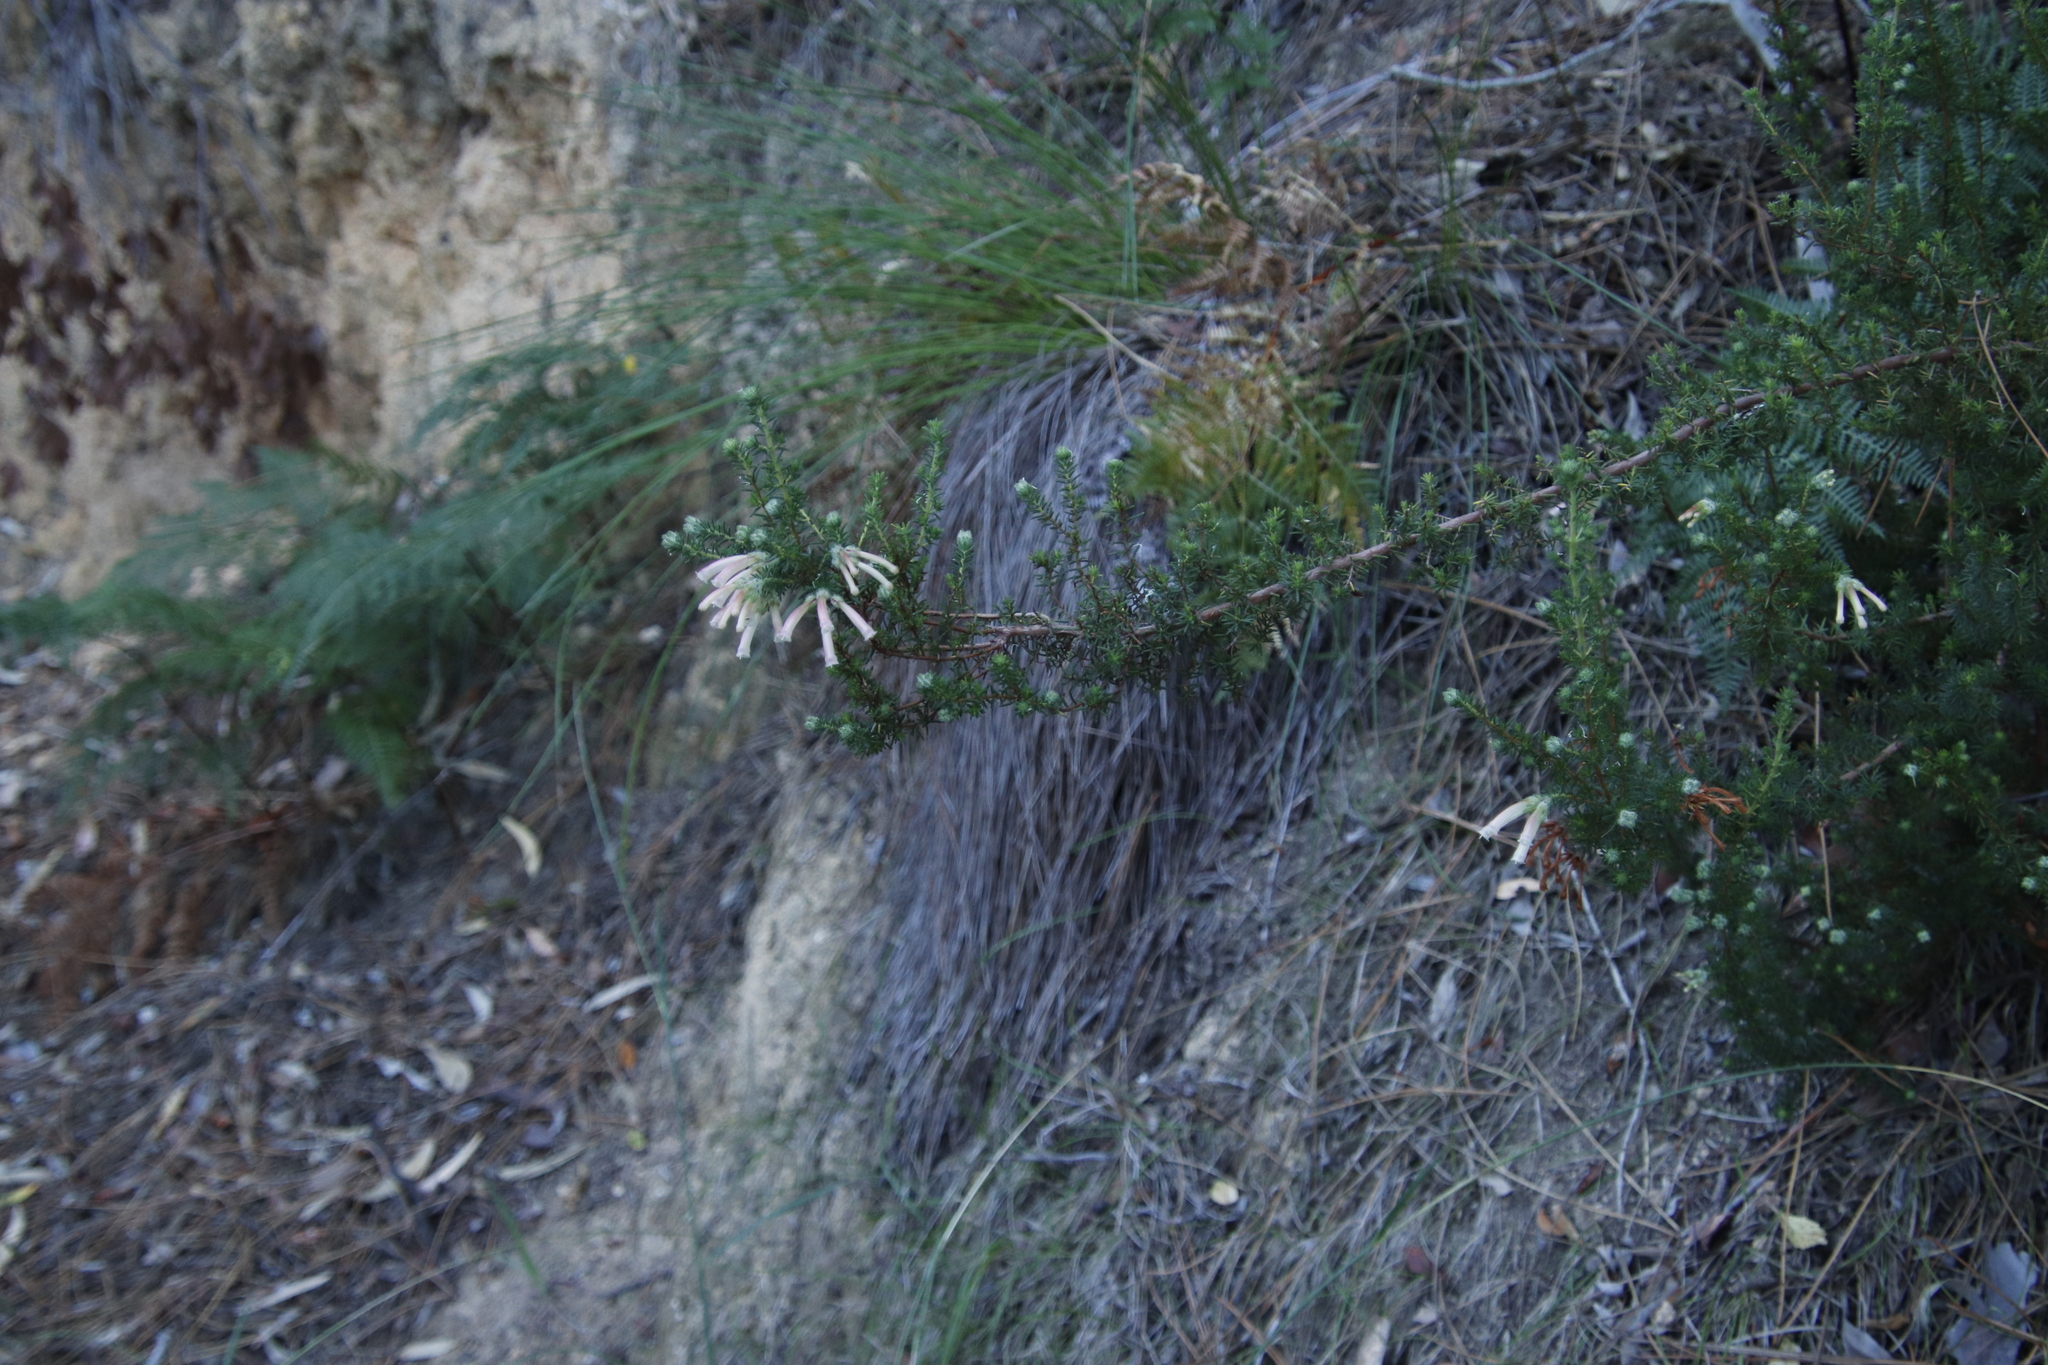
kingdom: Plantae
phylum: Tracheophyta
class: Magnoliopsida
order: Ericales
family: Ericaceae
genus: Erica
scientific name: Erica glandulosa
